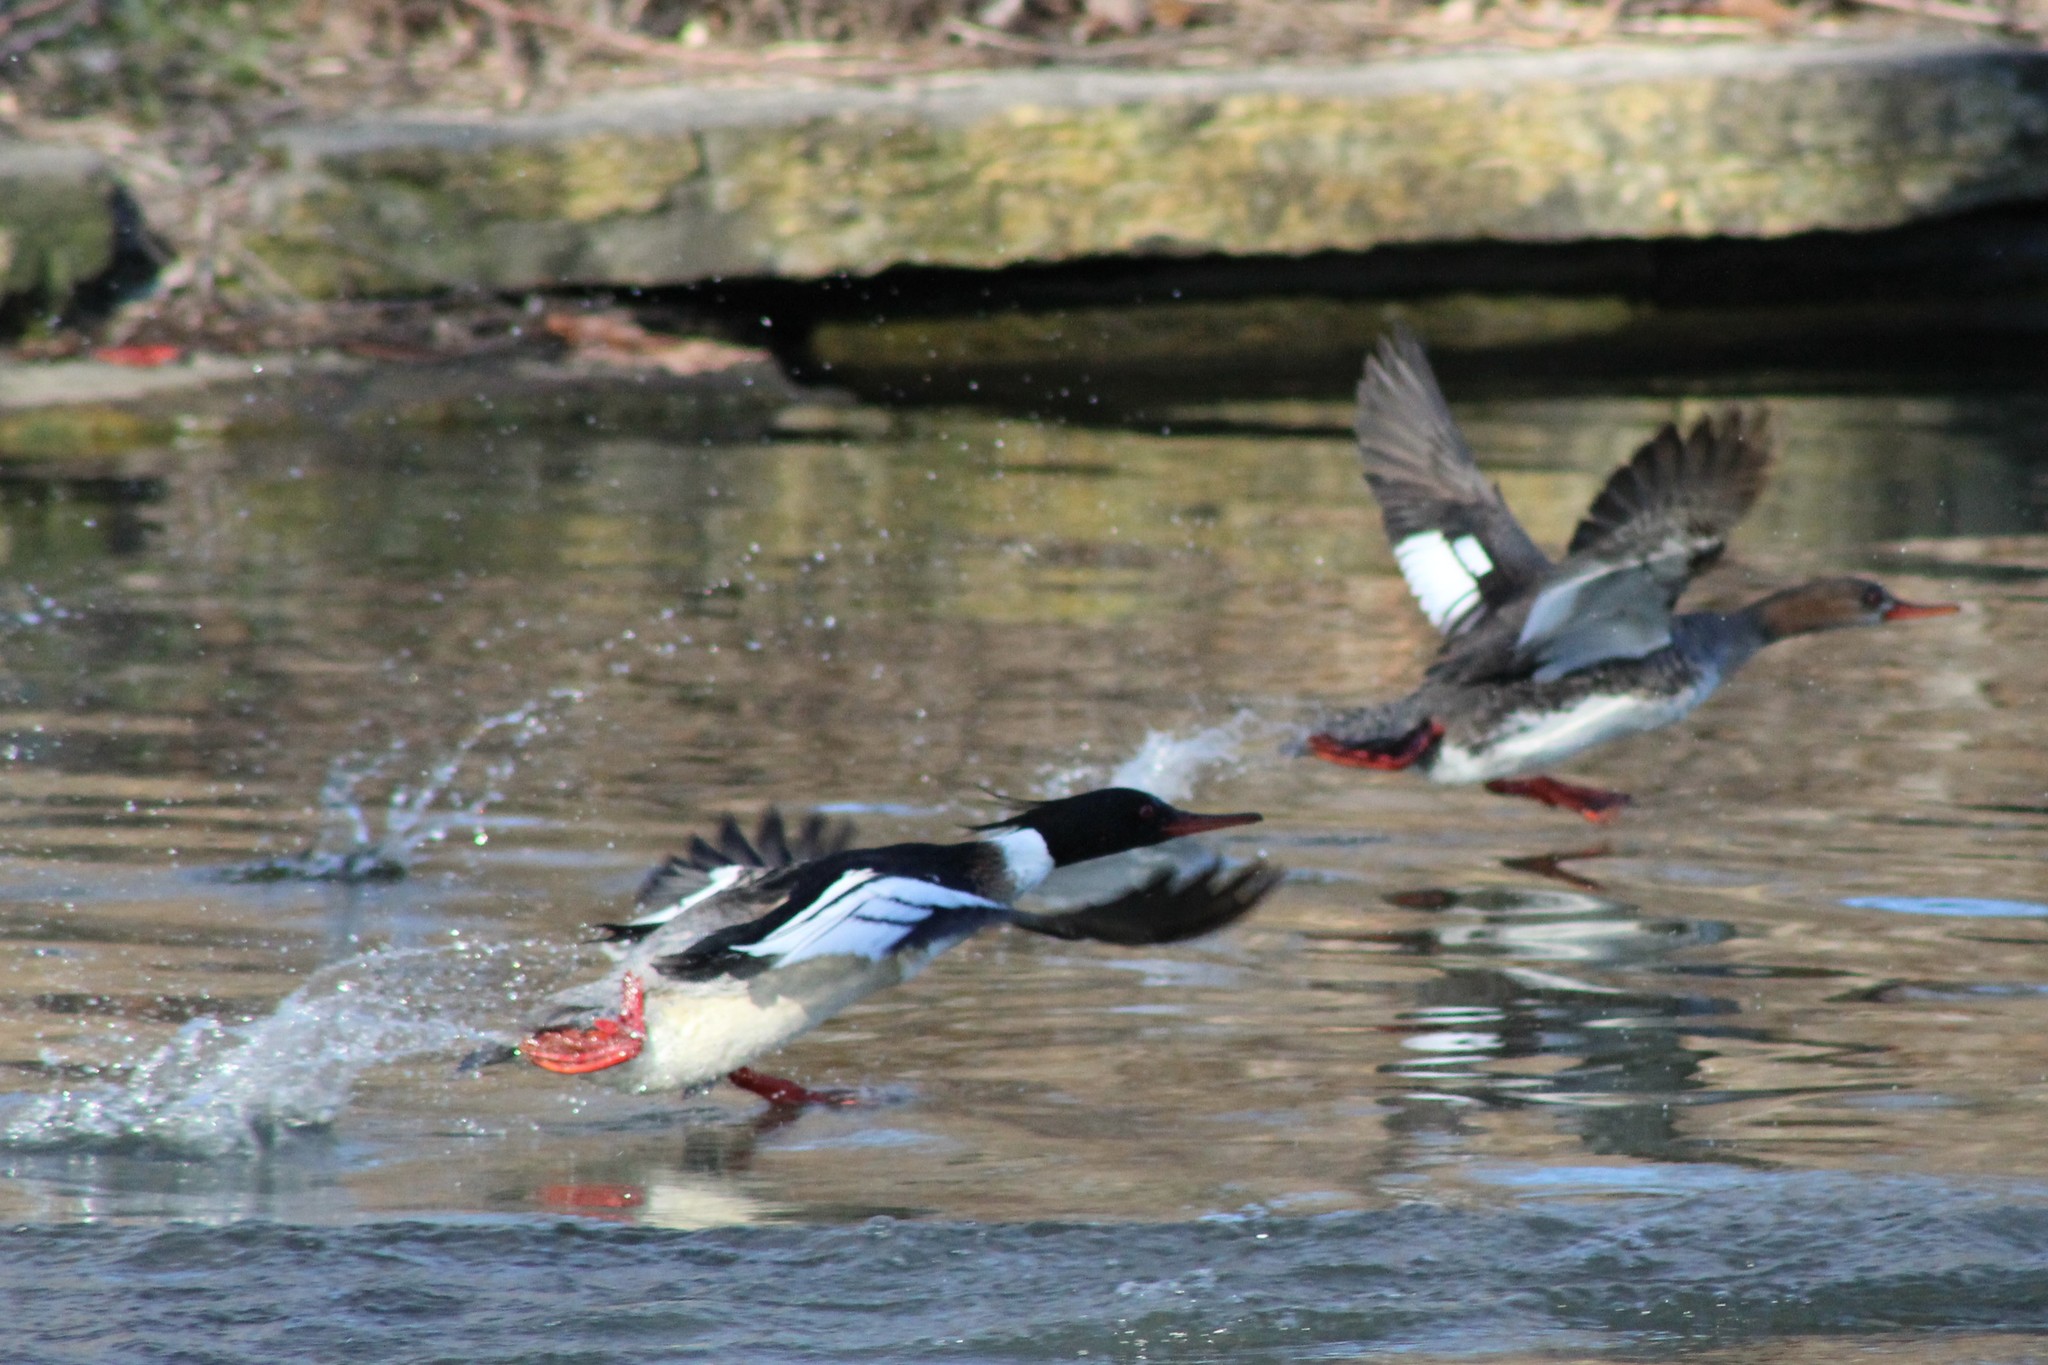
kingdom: Animalia
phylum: Chordata
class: Aves
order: Anseriformes
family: Anatidae
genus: Mergus
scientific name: Mergus serrator
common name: Red-breasted merganser
